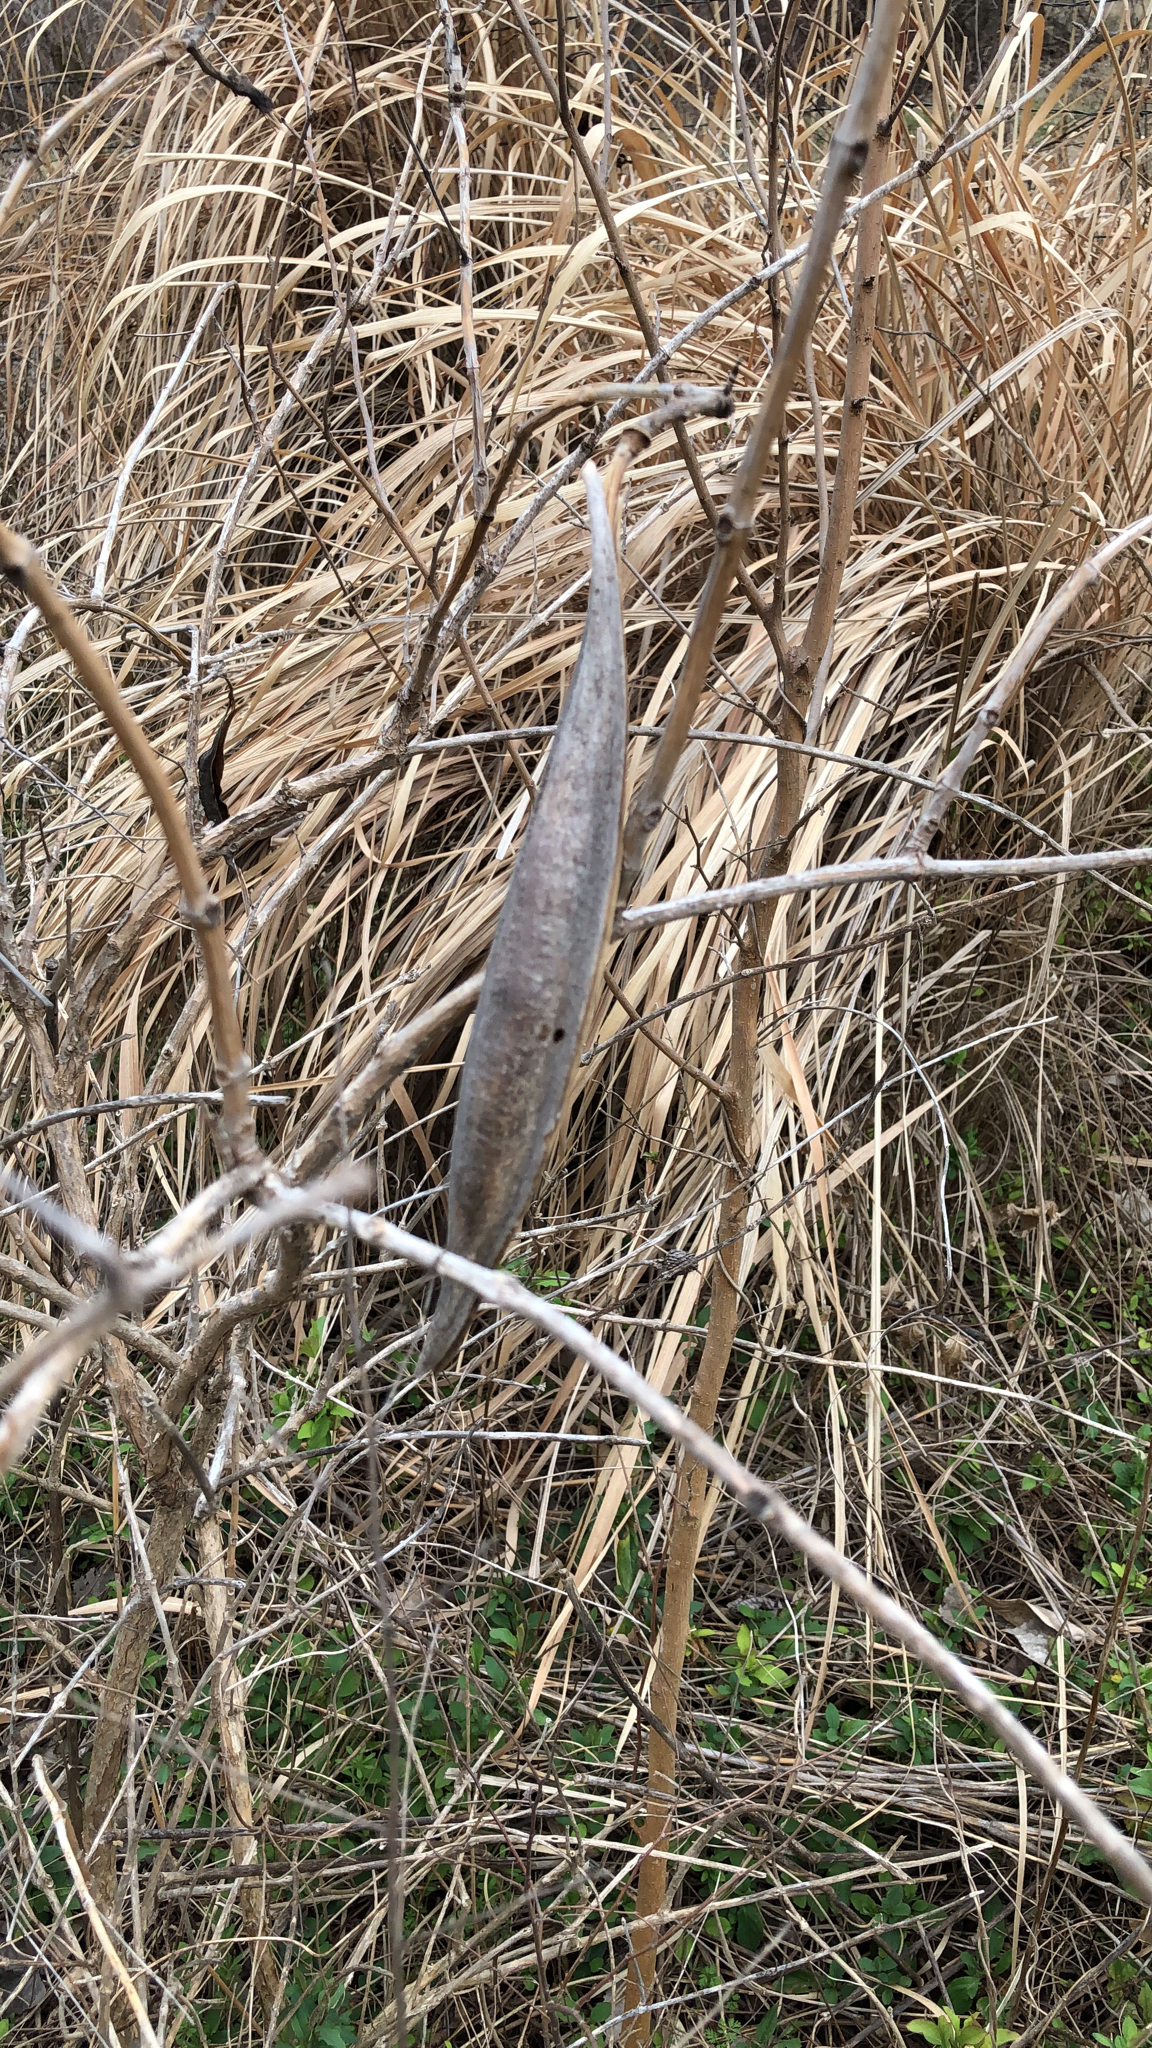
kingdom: Plantae
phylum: Tracheophyta
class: Magnoliopsida
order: Gentianales
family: Apocynaceae
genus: Apocynum
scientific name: Apocynum cannabinum
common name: Hemp dogbane
